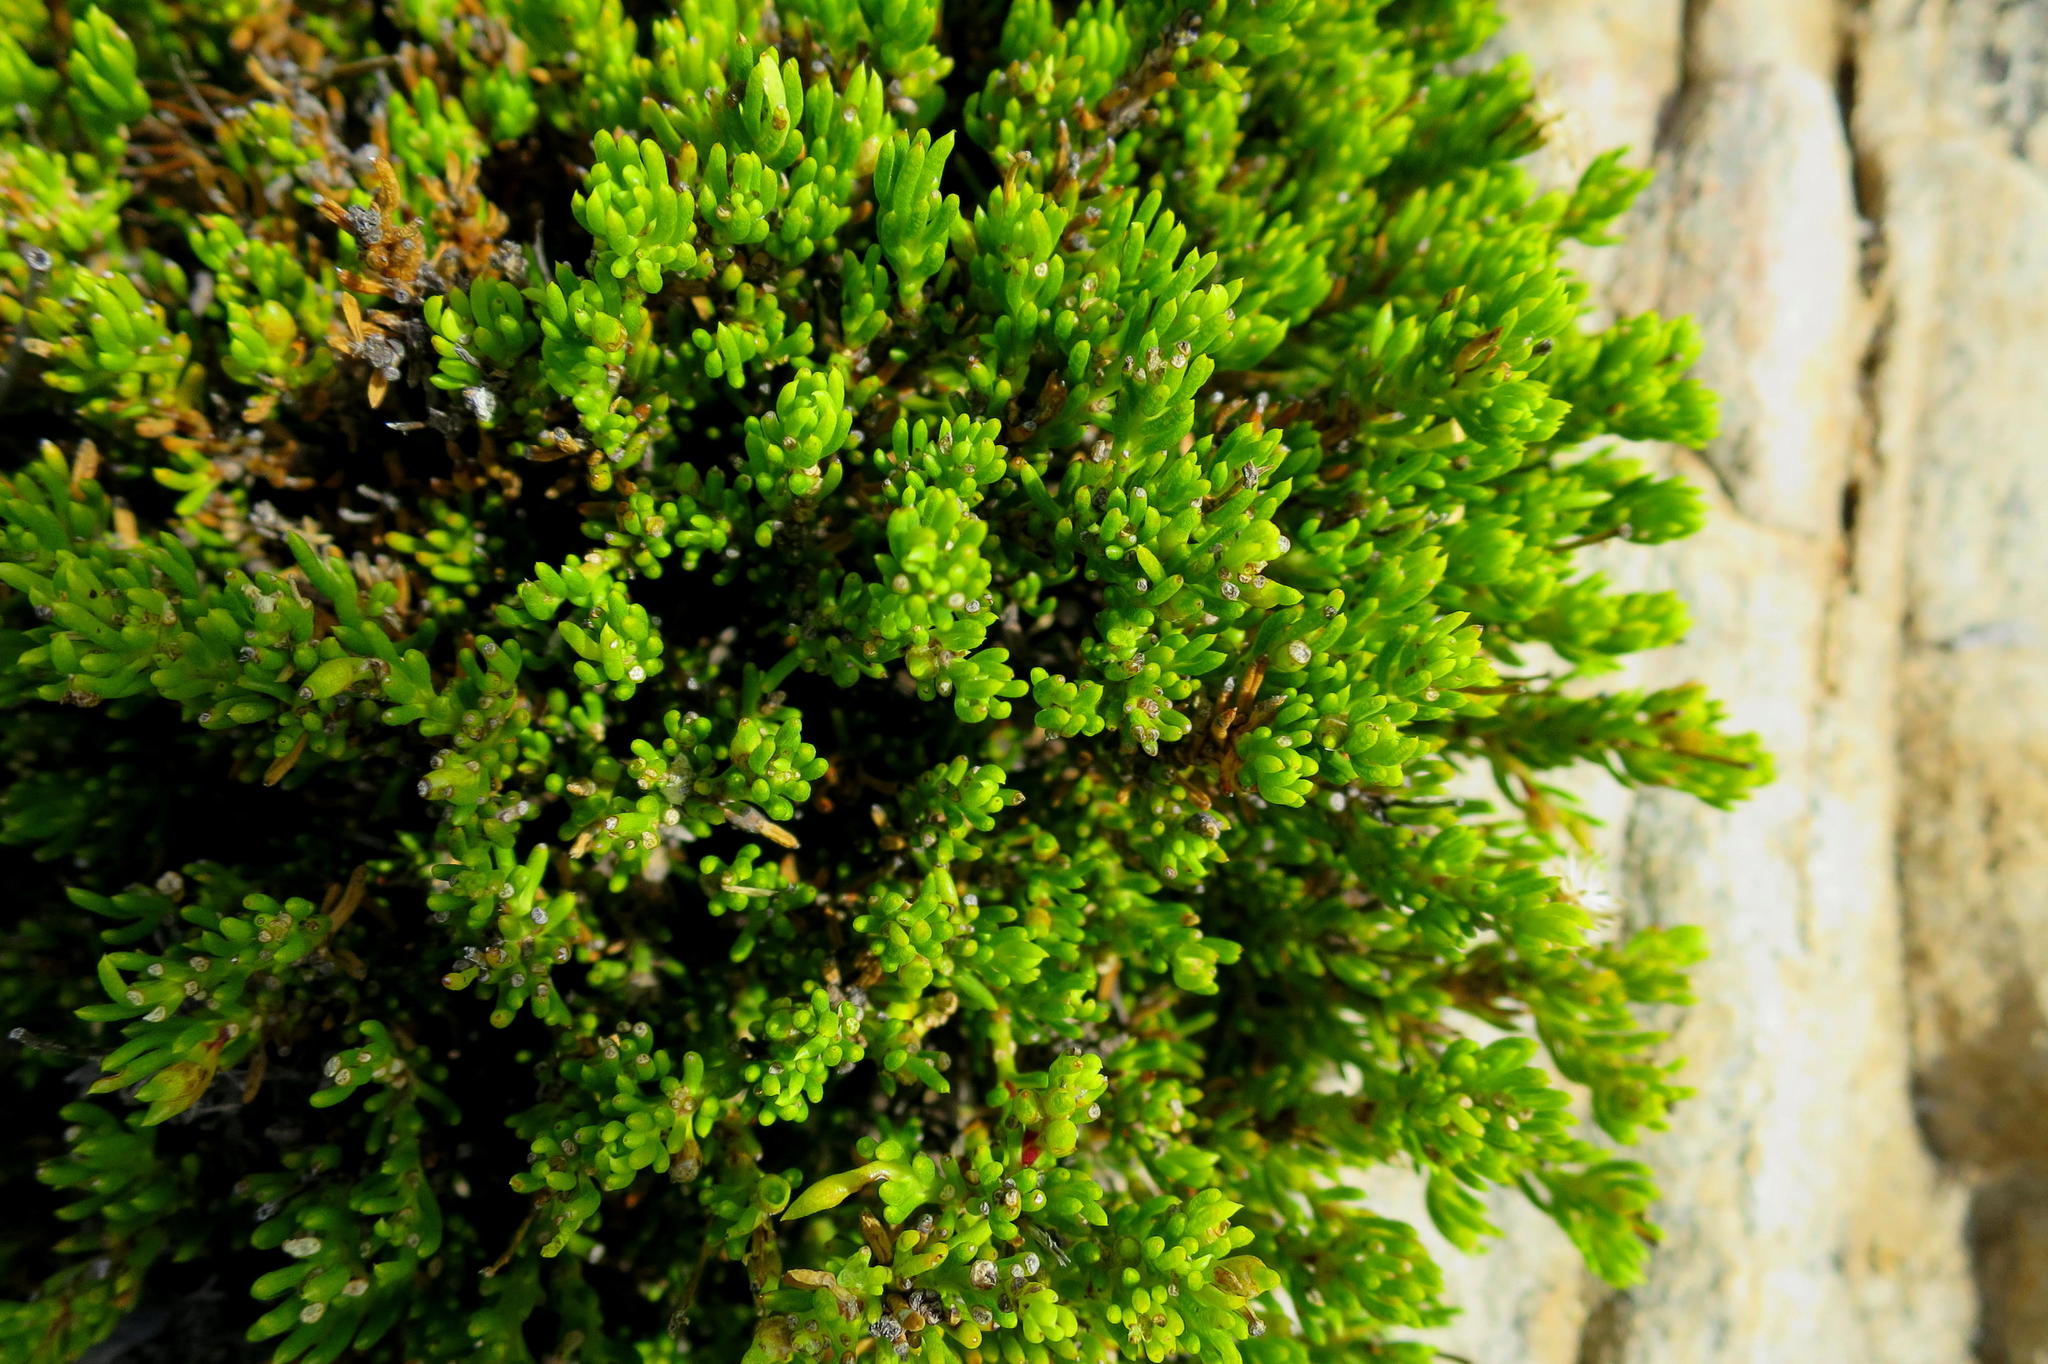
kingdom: Plantae
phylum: Tracheophyta
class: Magnoliopsida
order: Asterales
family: Asteraceae
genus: Felicia
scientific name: Felicia oleosa
